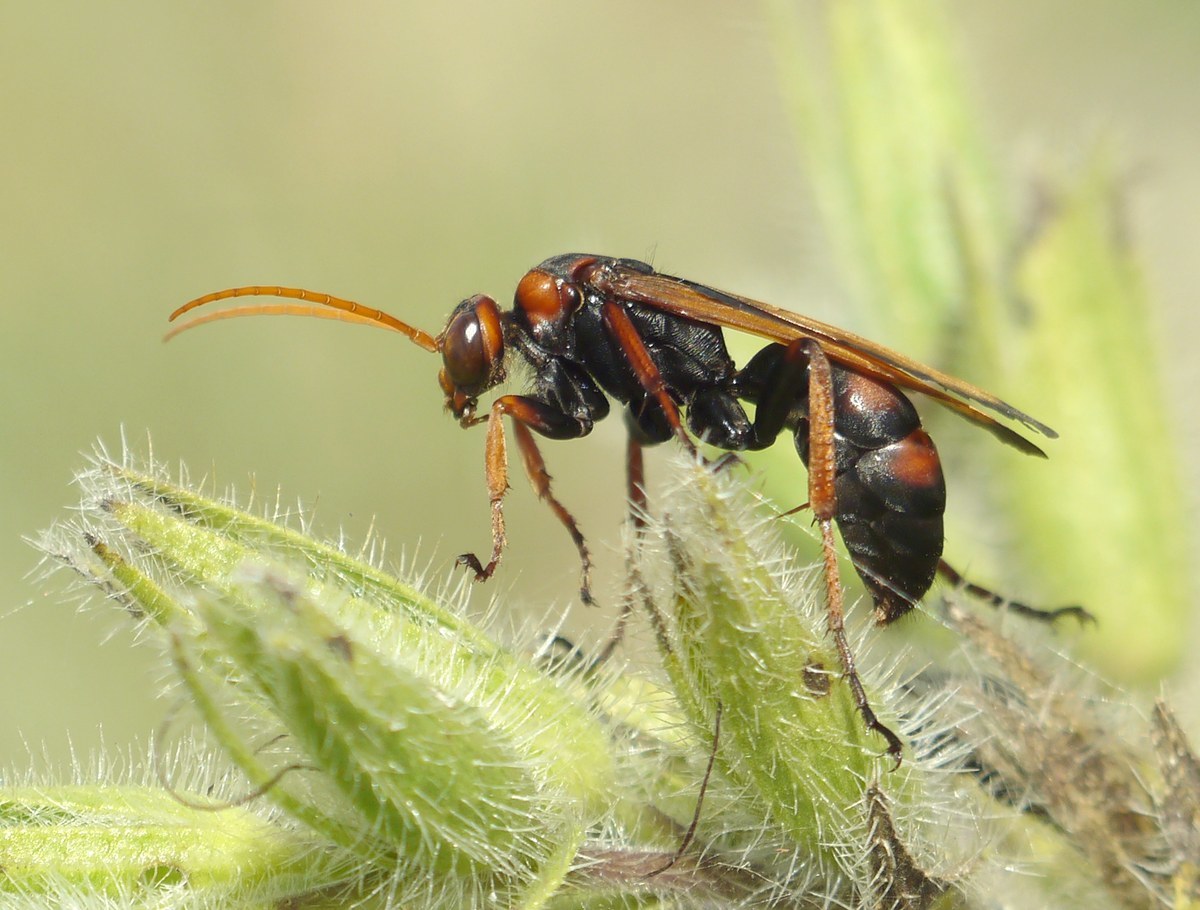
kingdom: Animalia
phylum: Arthropoda
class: Insecta
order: Hymenoptera
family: Pompilidae
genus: Cryptocheilus
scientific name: Cryptocheilus rubellus
